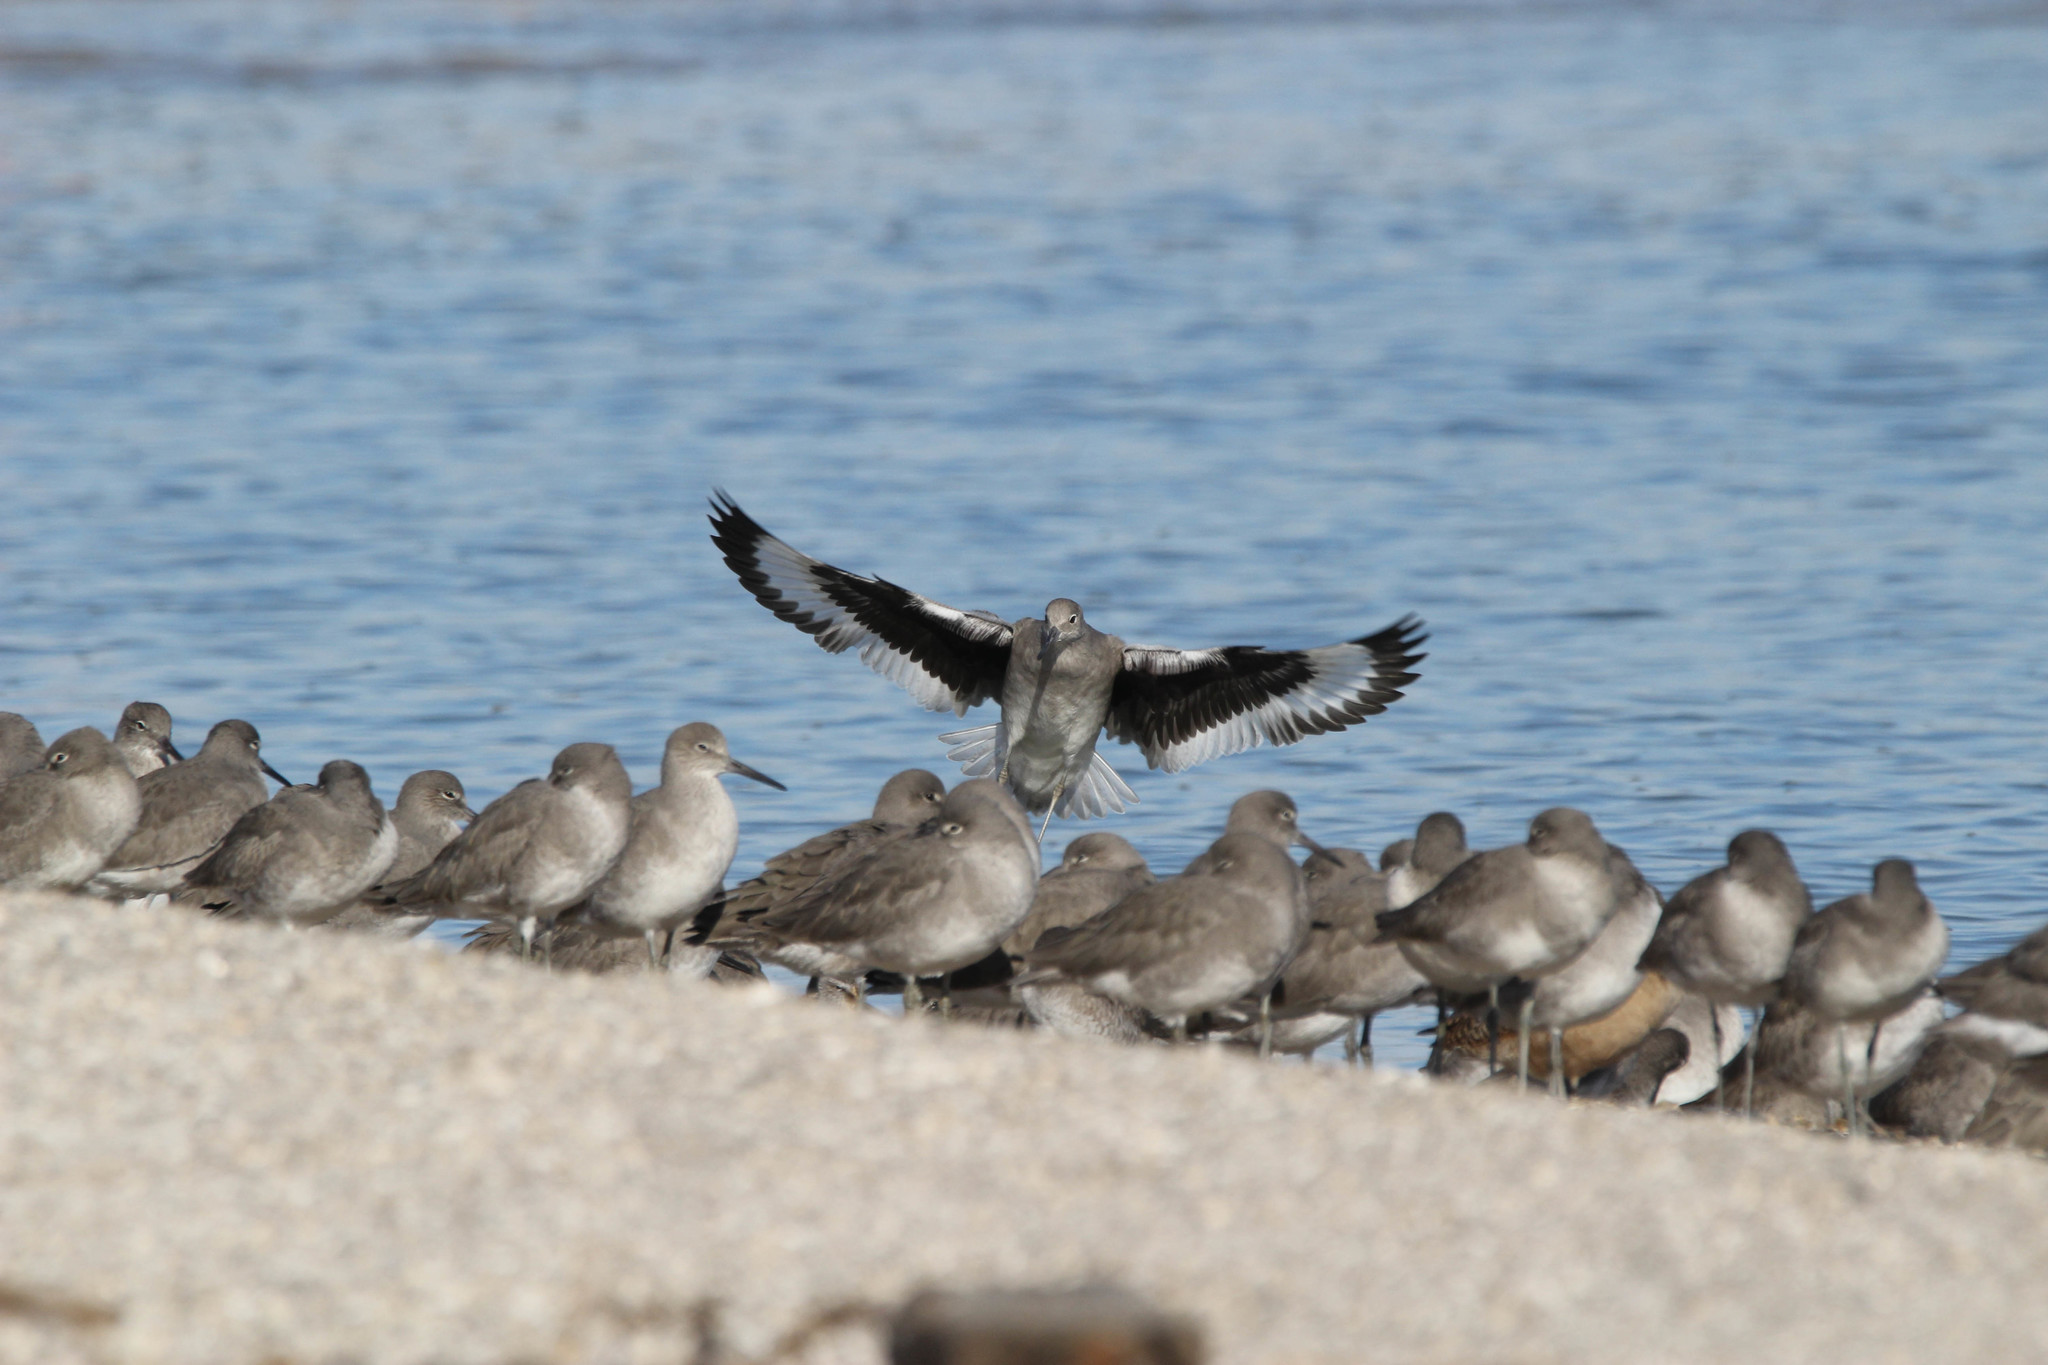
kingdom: Animalia
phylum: Chordata
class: Aves
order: Charadriiformes
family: Scolopacidae
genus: Tringa
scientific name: Tringa semipalmata
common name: Willet
